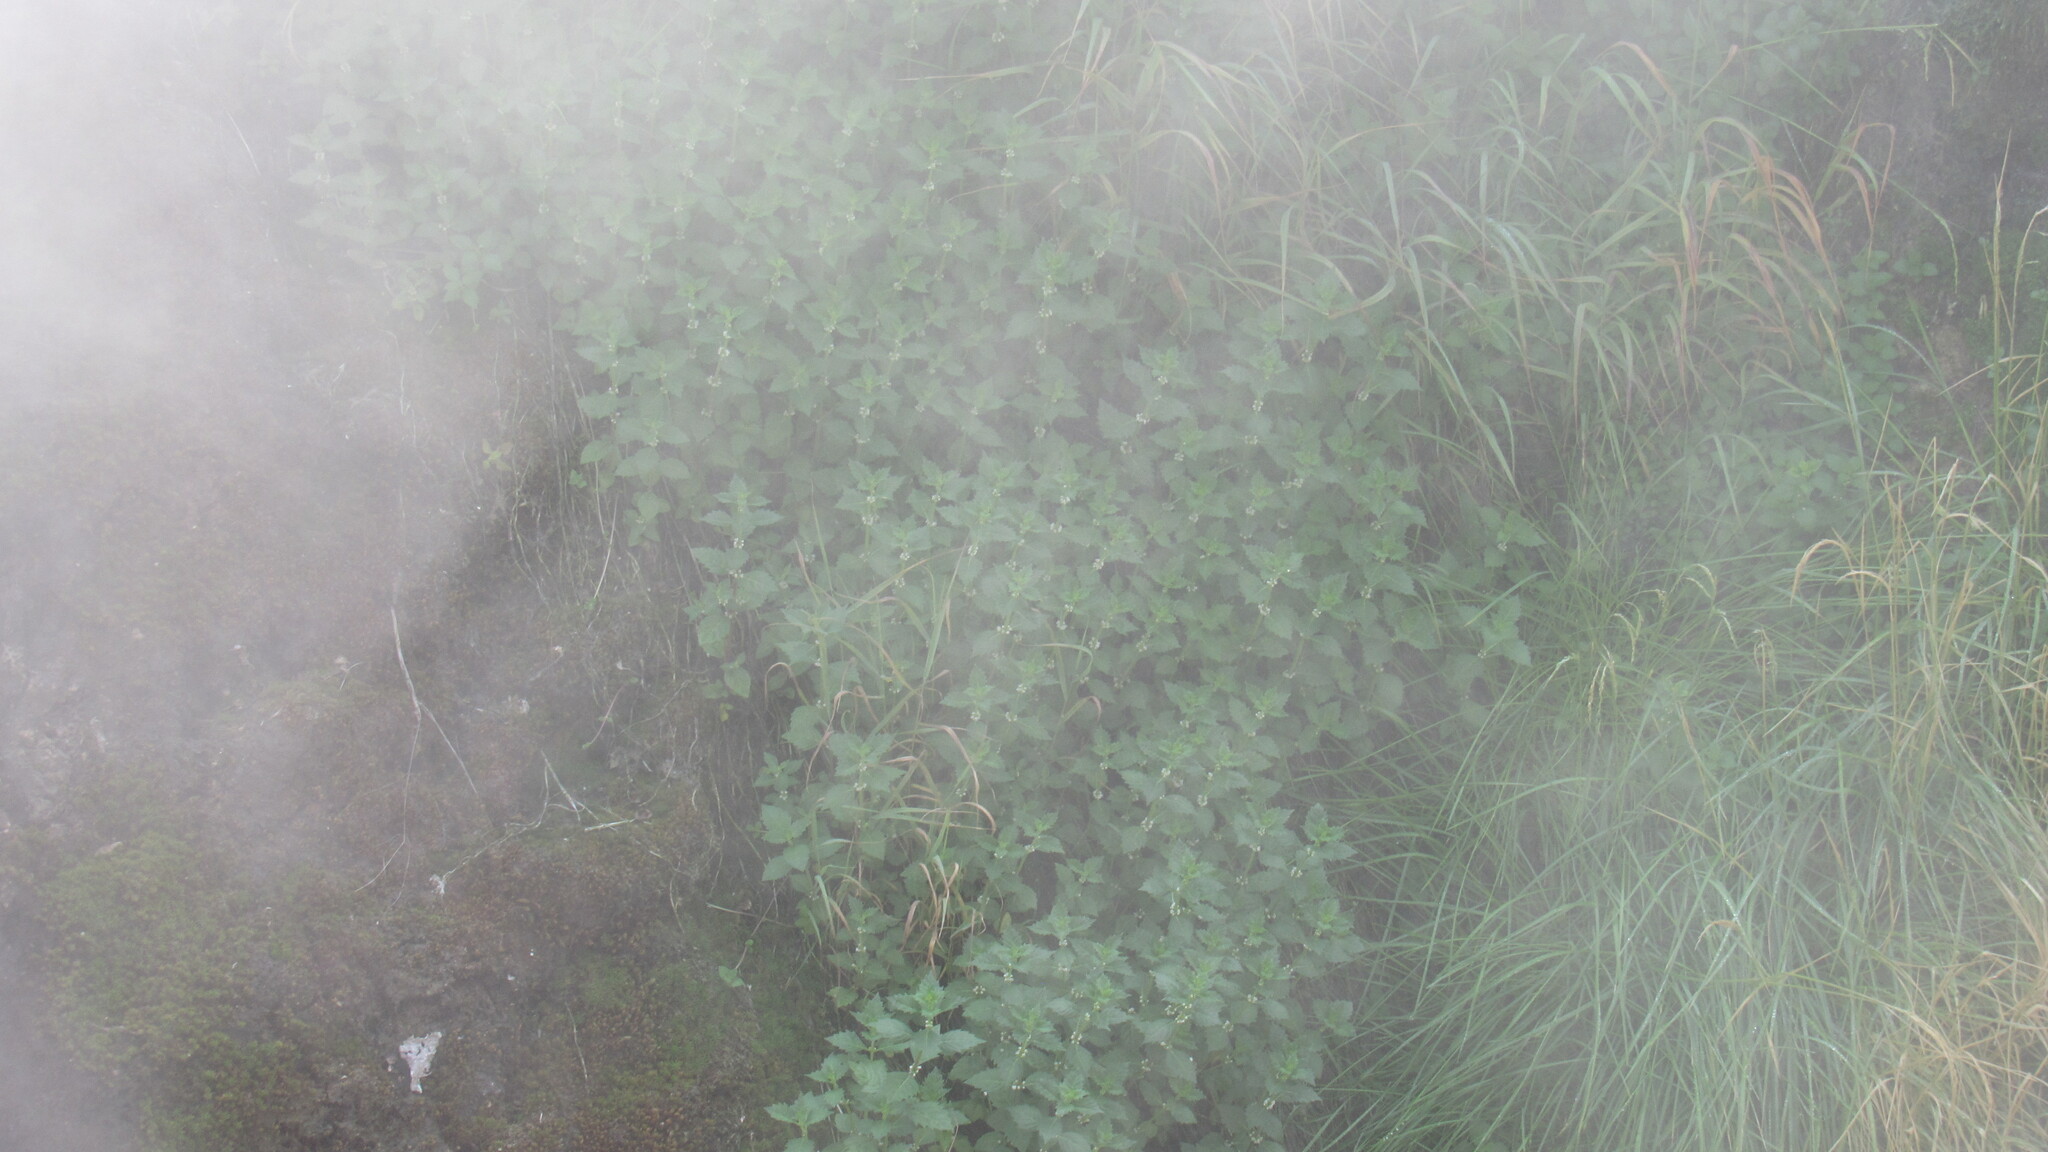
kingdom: Plantae
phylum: Tracheophyta
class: Magnoliopsida
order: Lamiales
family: Lamiaceae
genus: Lycopus
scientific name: Lycopus uniflorus
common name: Northern bugleweed
